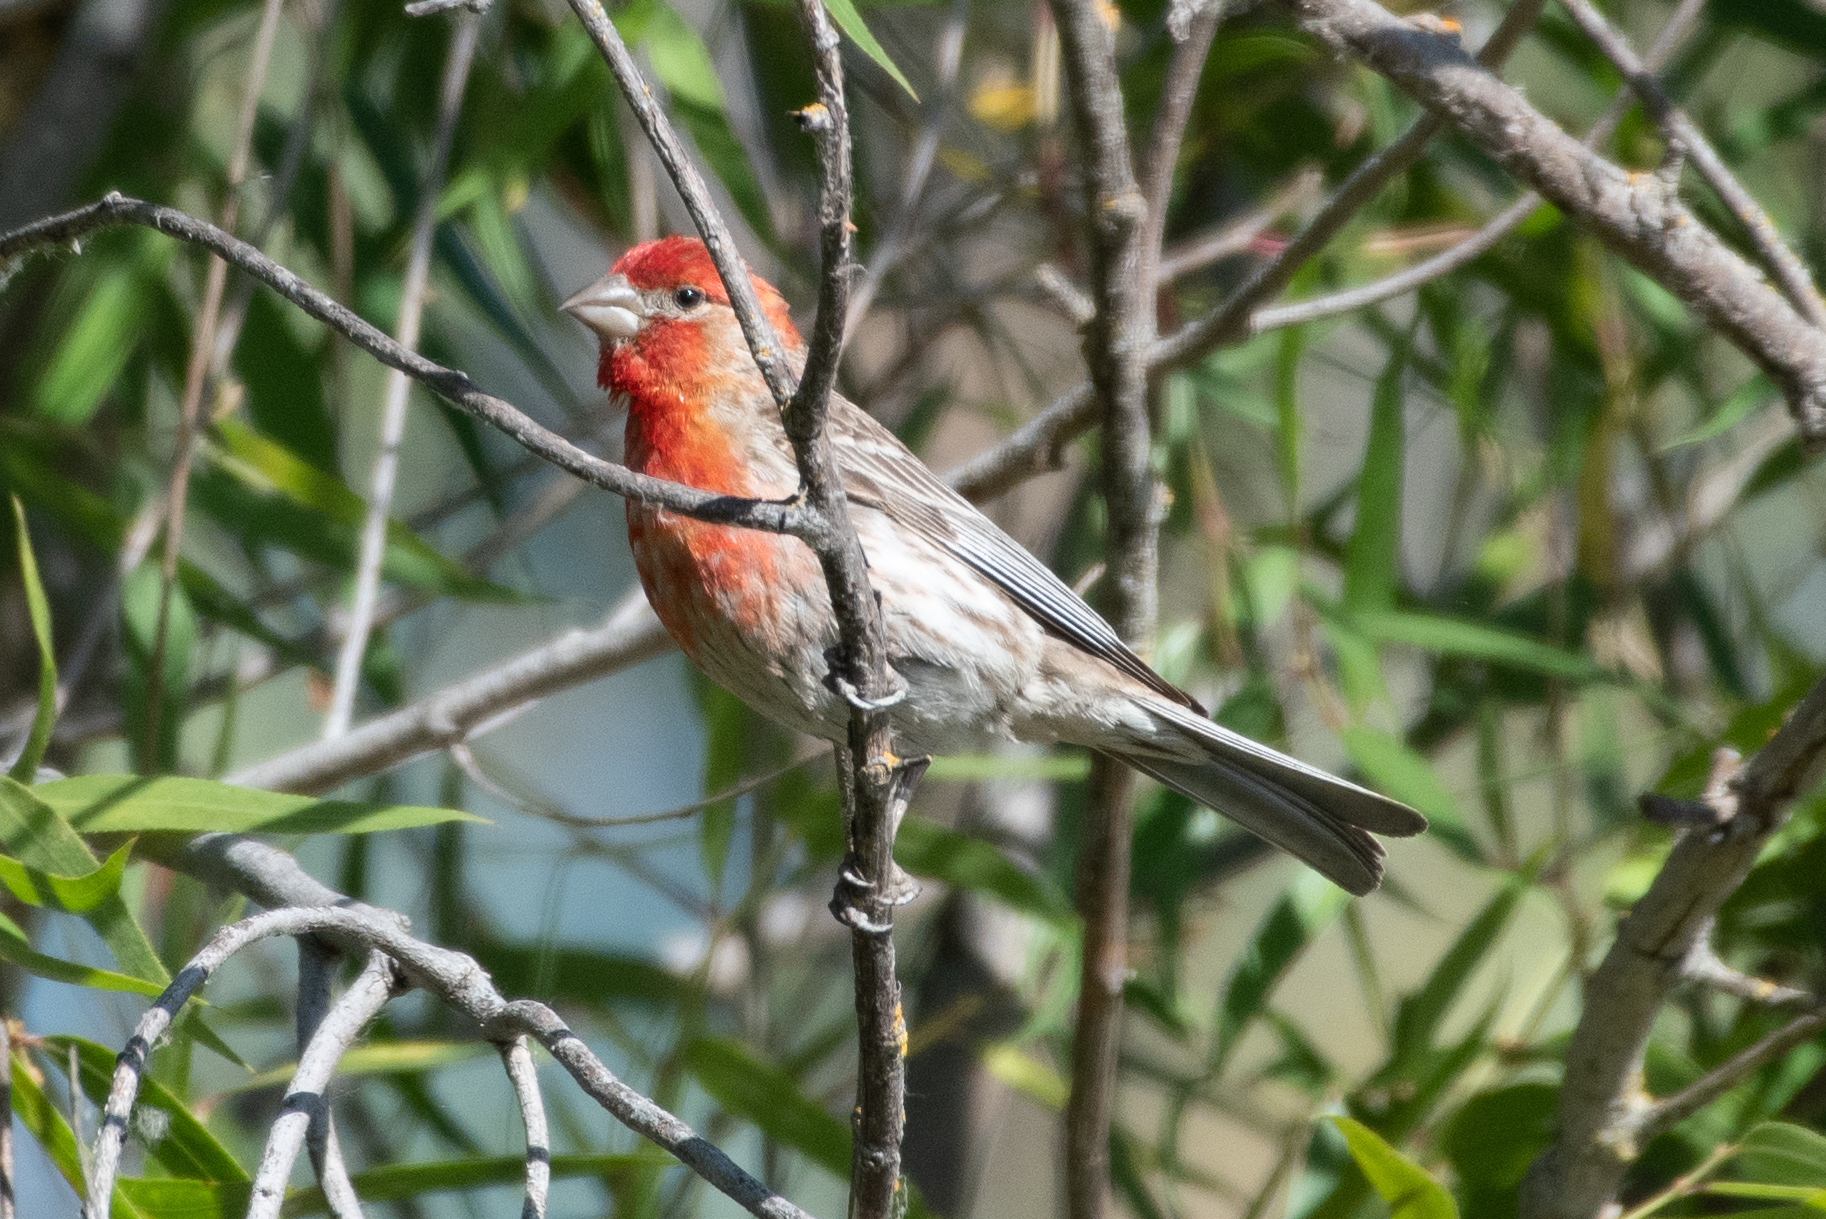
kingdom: Animalia
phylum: Chordata
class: Aves
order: Passeriformes
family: Fringillidae
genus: Haemorhous
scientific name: Haemorhous mexicanus
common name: House finch
